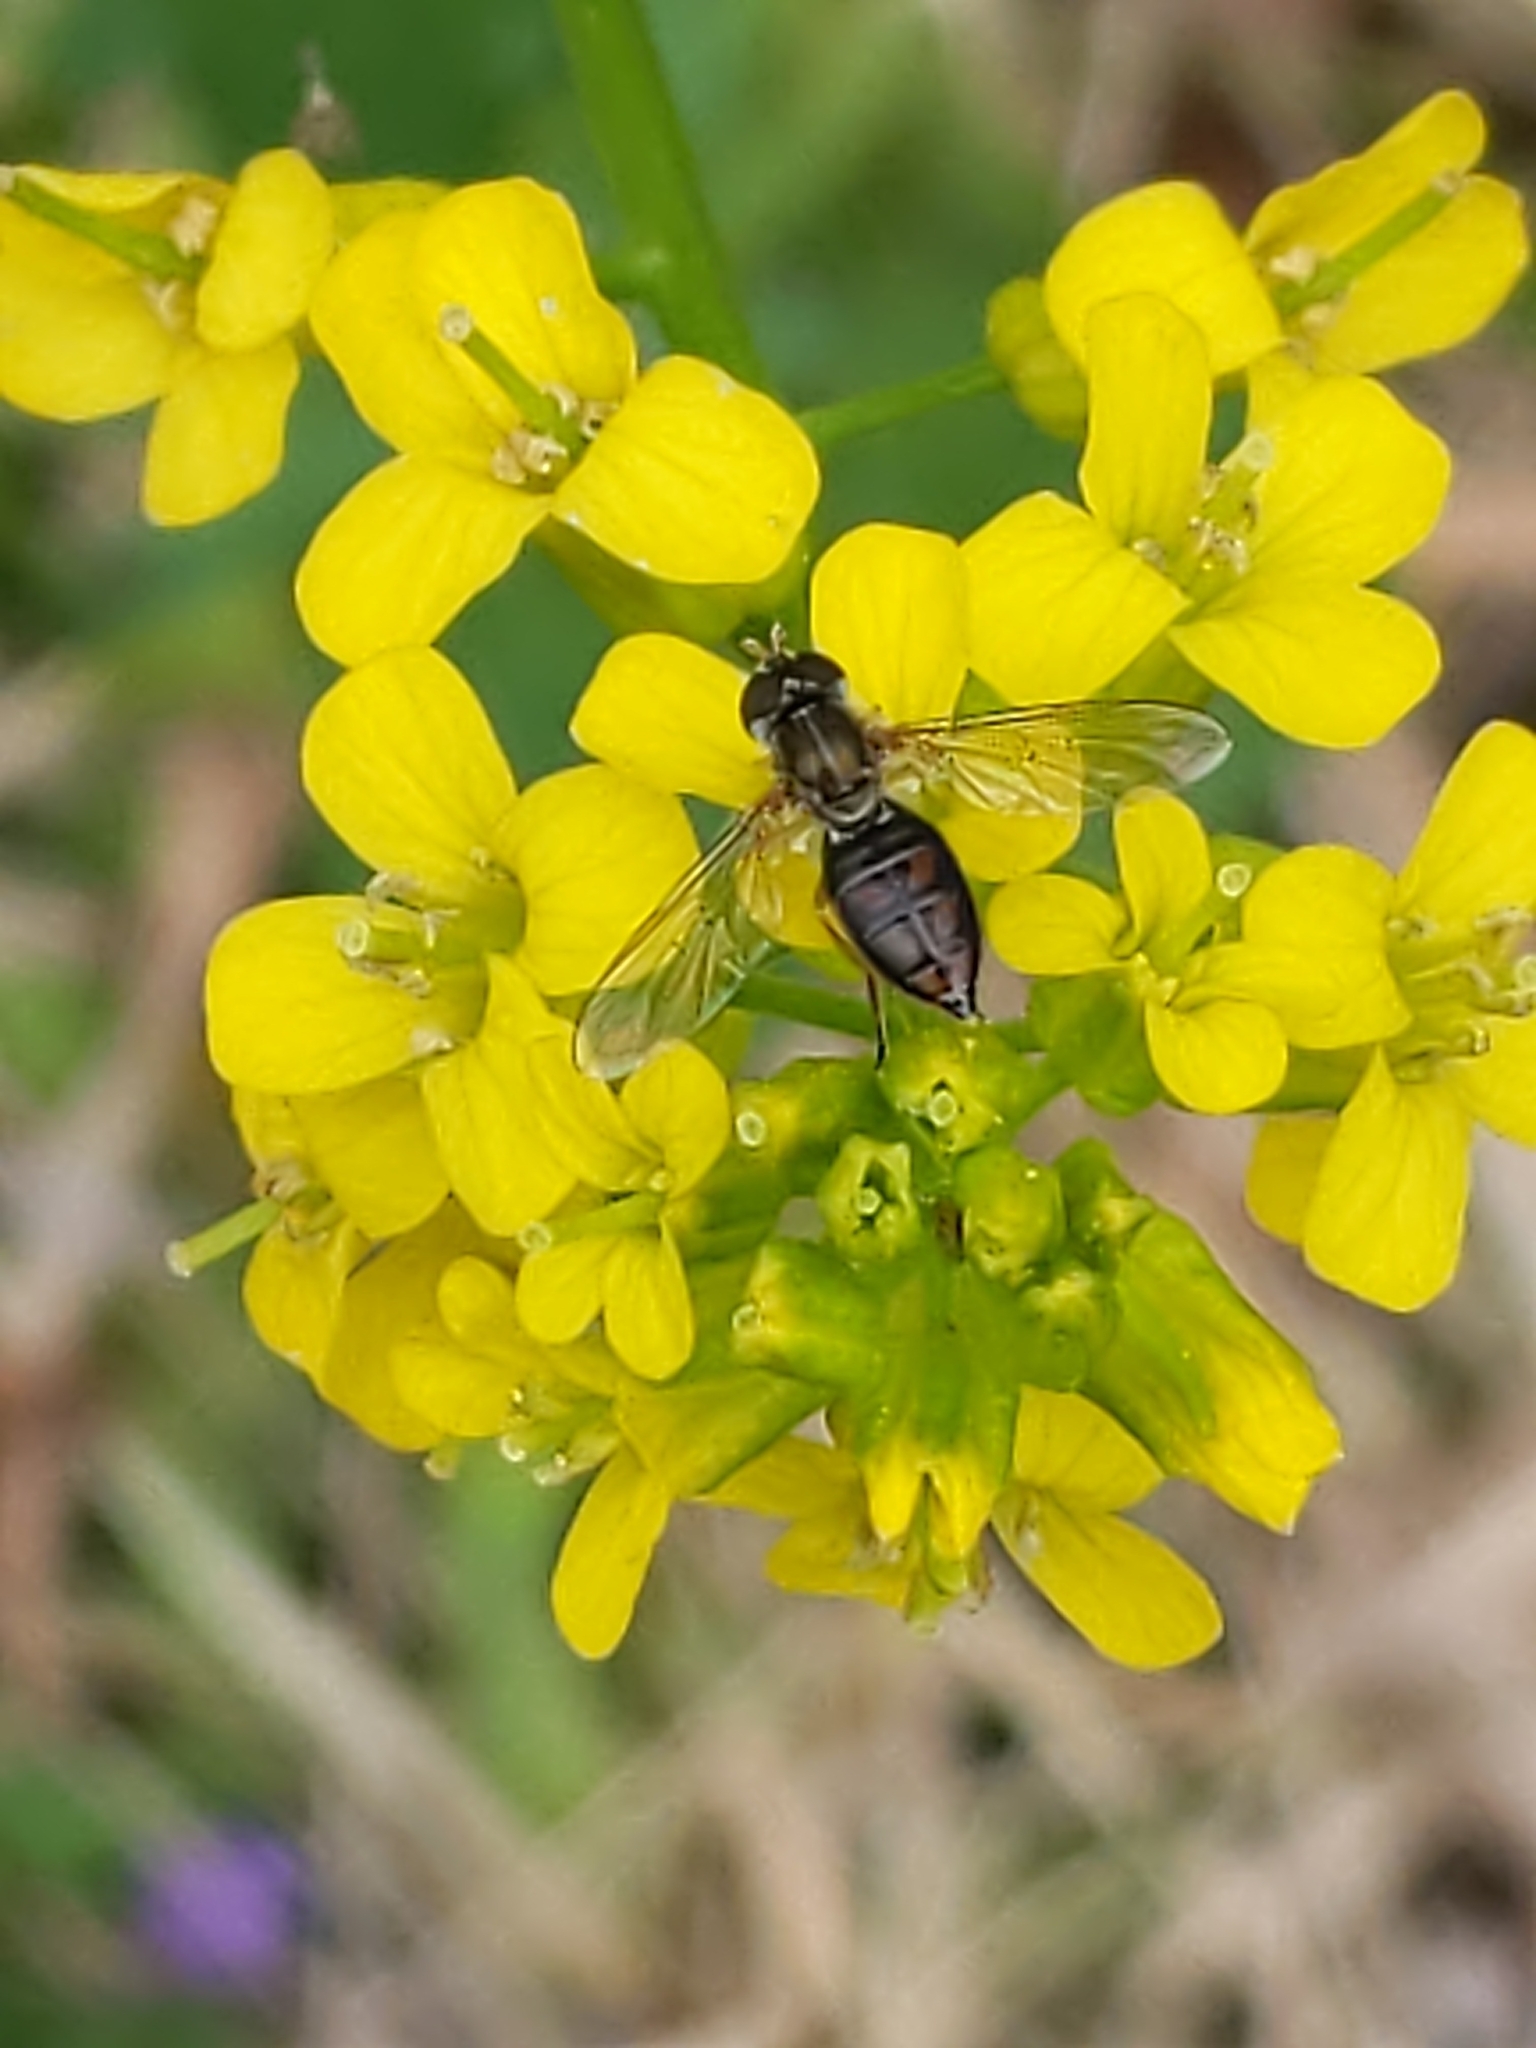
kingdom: Animalia
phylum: Arthropoda
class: Insecta
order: Diptera
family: Syrphidae
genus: Toxomerus
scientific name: Toxomerus marginatus
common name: Syrphid fly
